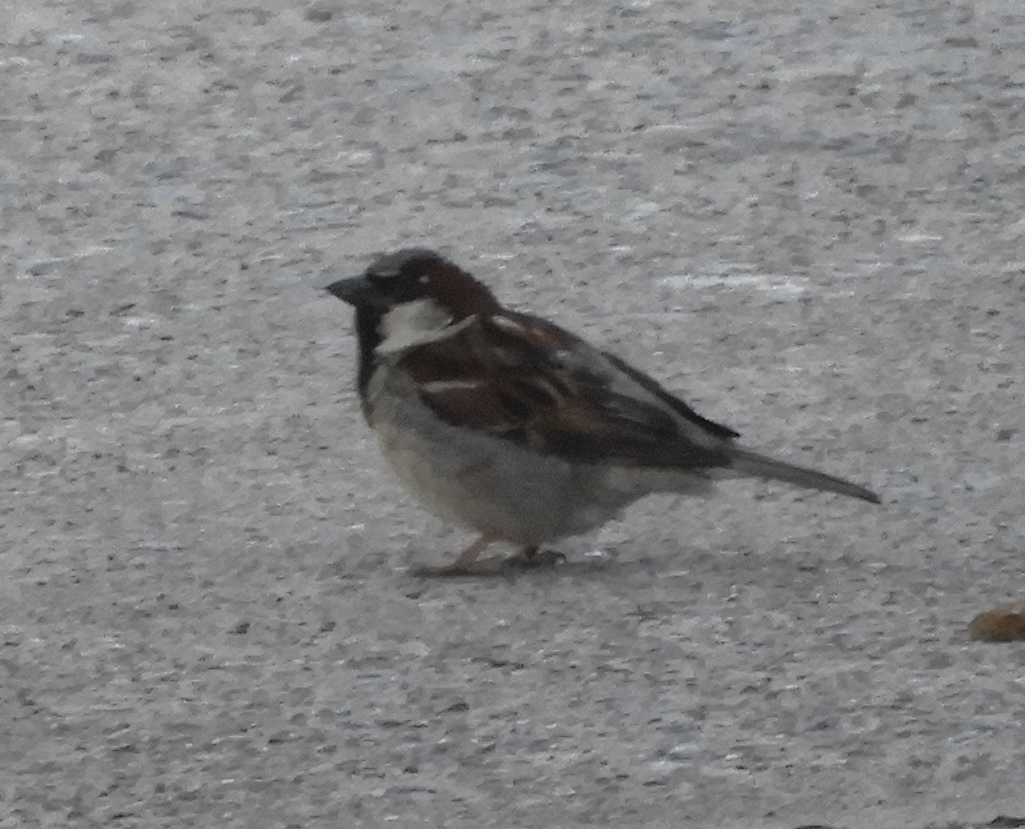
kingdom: Animalia
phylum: Chordata
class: Aves
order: Passeriformes
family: Passeridae
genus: Passer
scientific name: Passer domesticus
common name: House sparrow
